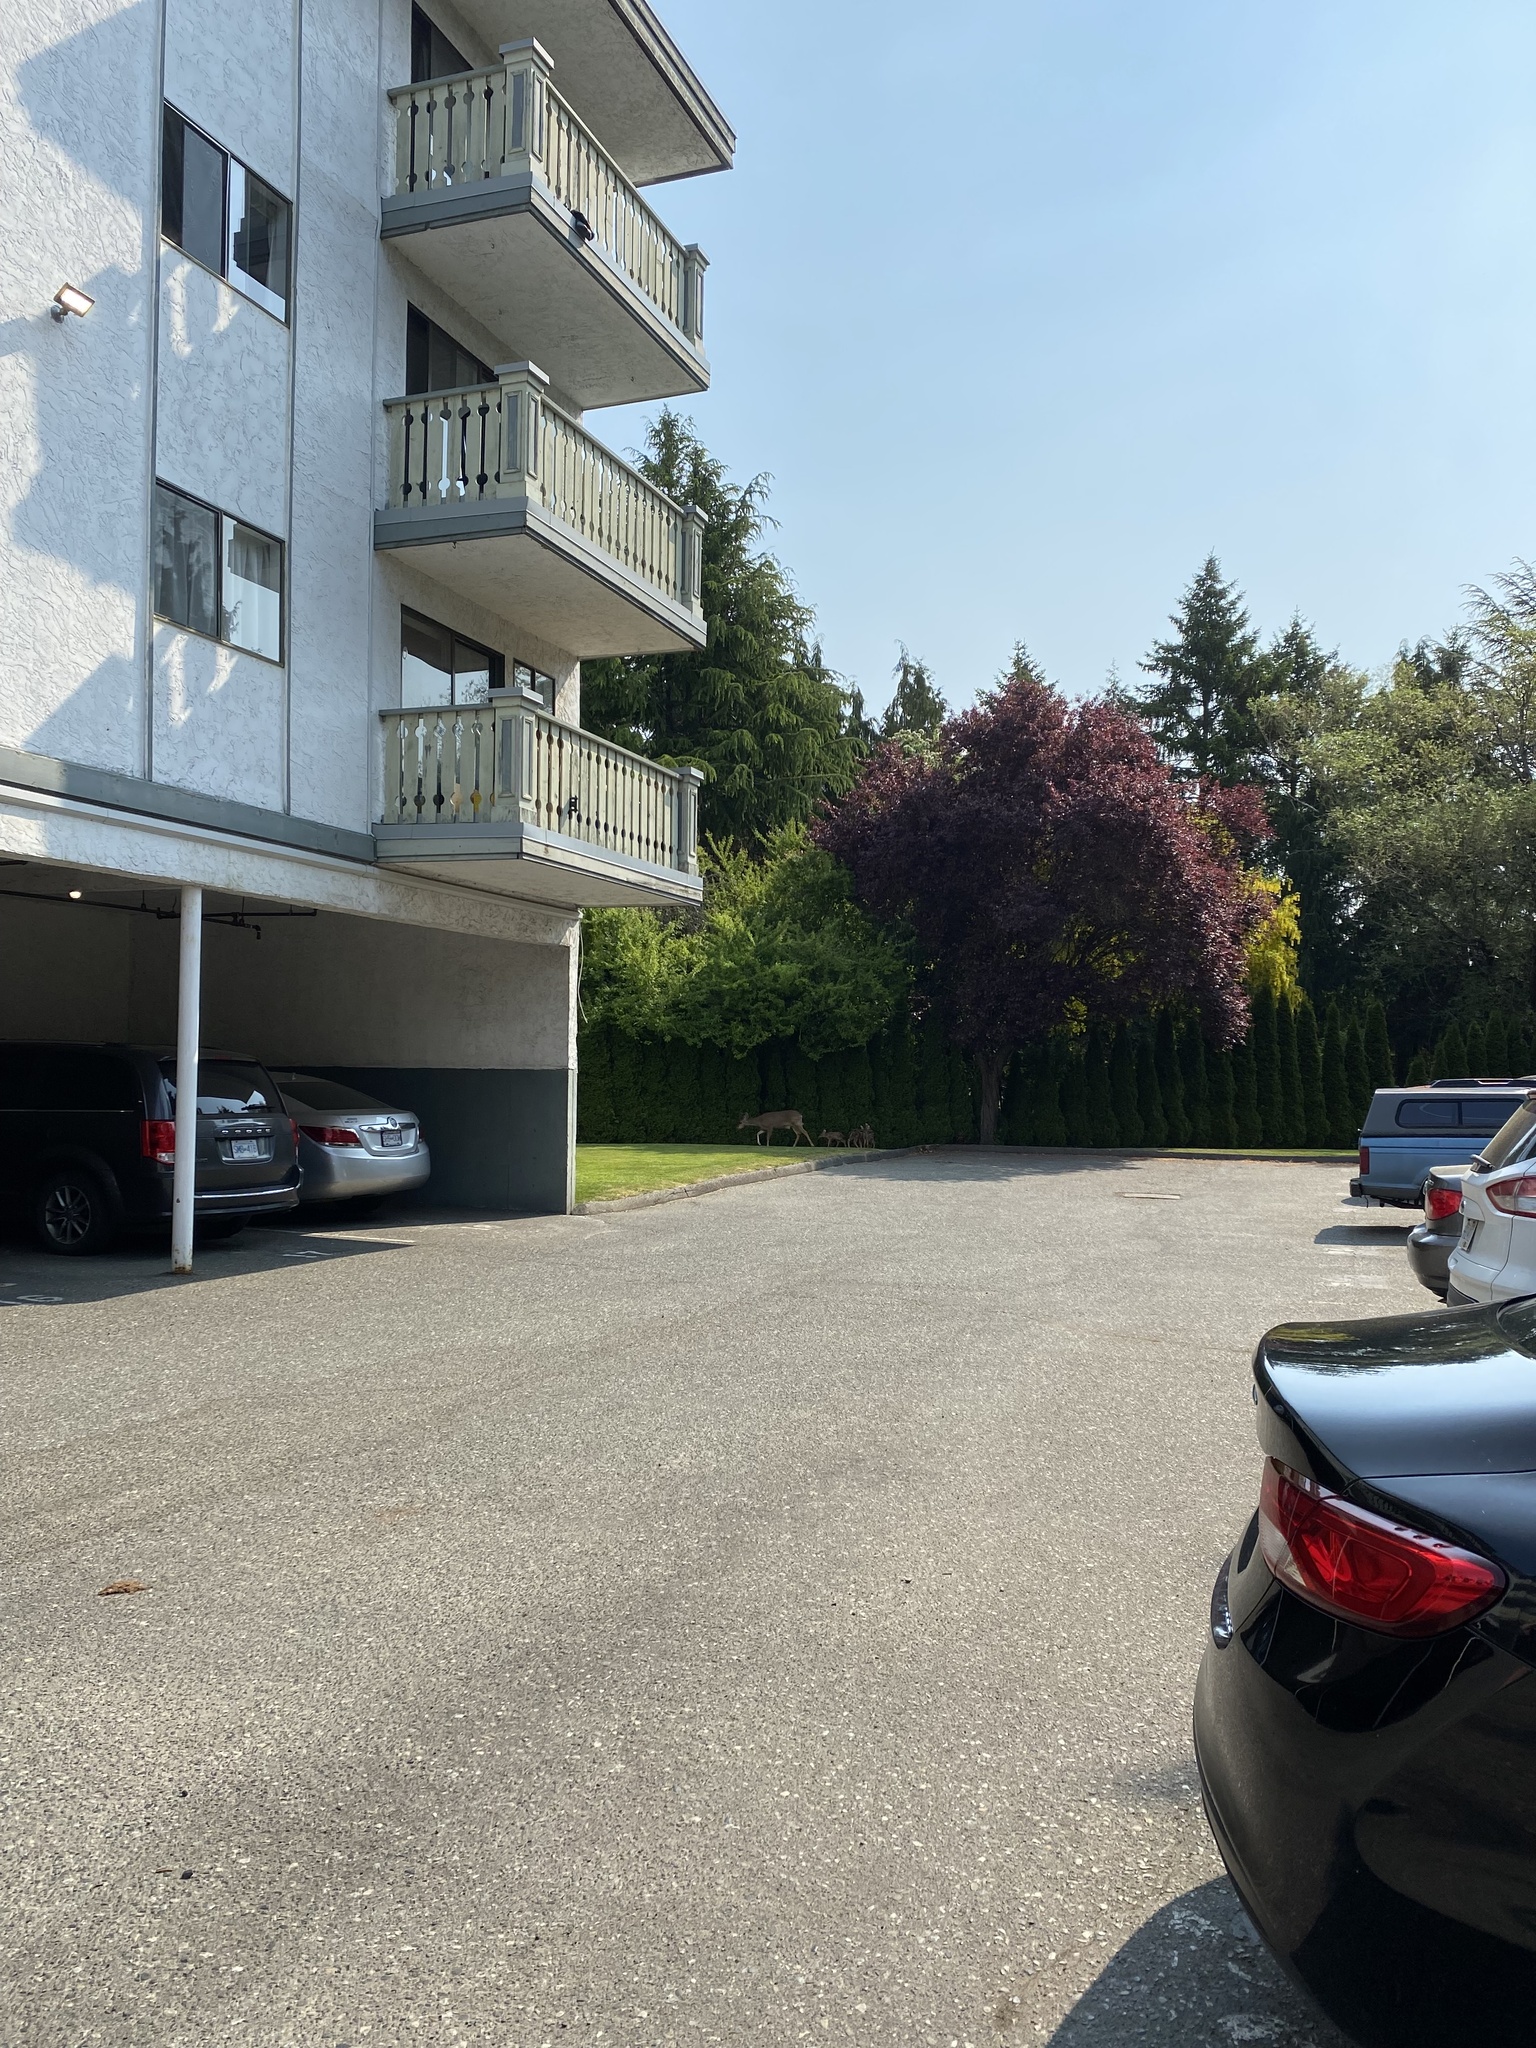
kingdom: Animalia
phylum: Chordata
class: Mammalia
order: Artiodactyla
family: Cervidae
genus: Odocoileus
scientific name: Odocoileus hemionus
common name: Mule deer
